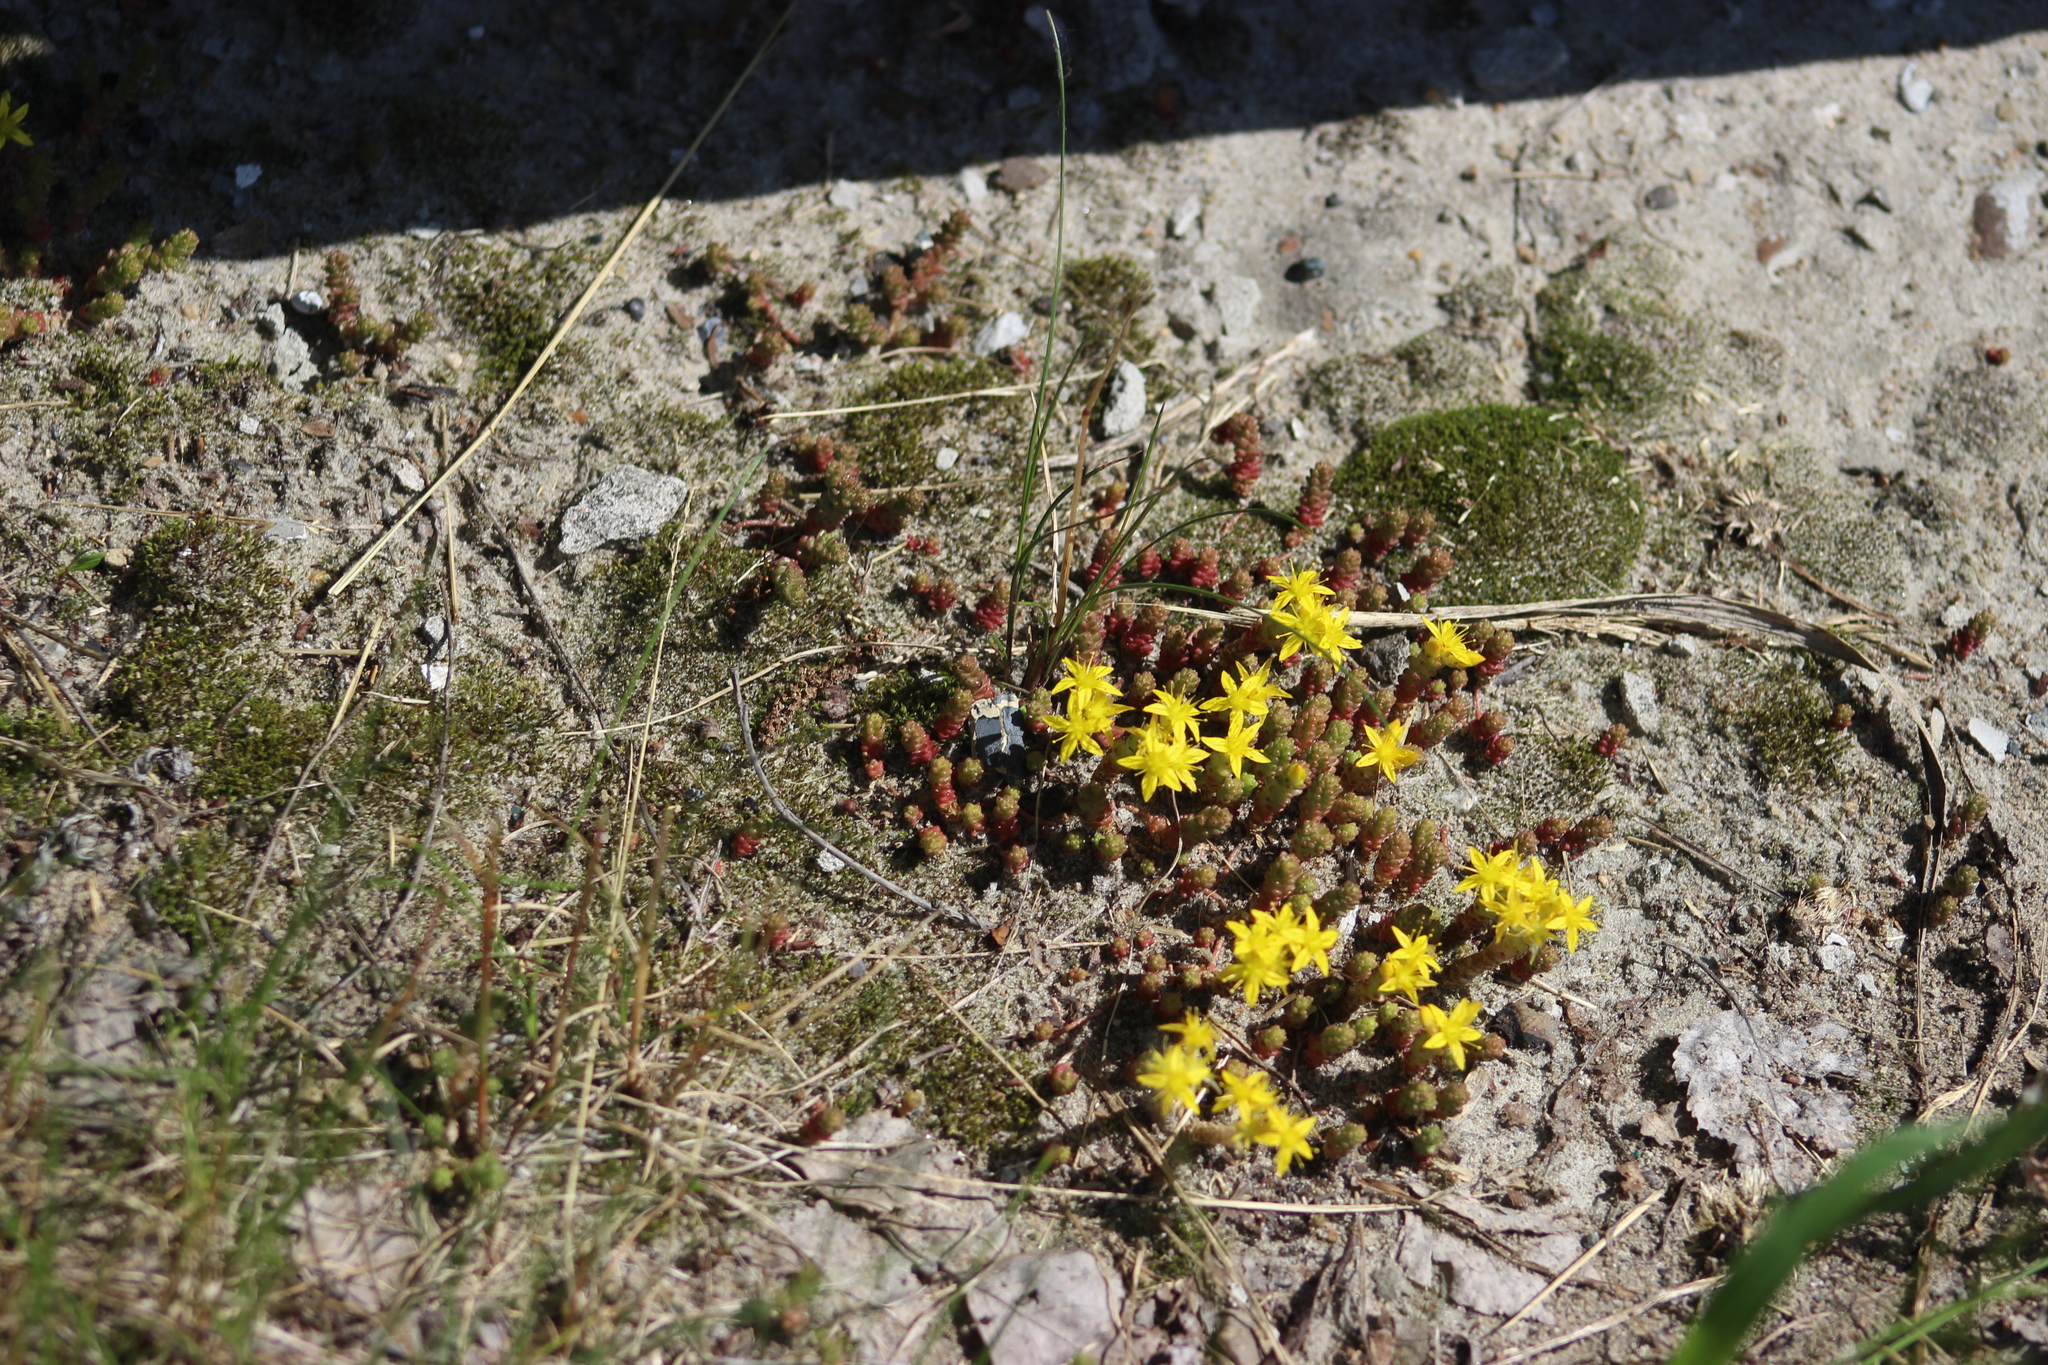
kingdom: Plantae
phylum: Tracheophyta
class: Magnoliopsida
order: Saxifragales
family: Crassulaceae
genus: Sedum
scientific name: Sedum acre
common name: Biting stonecrop
